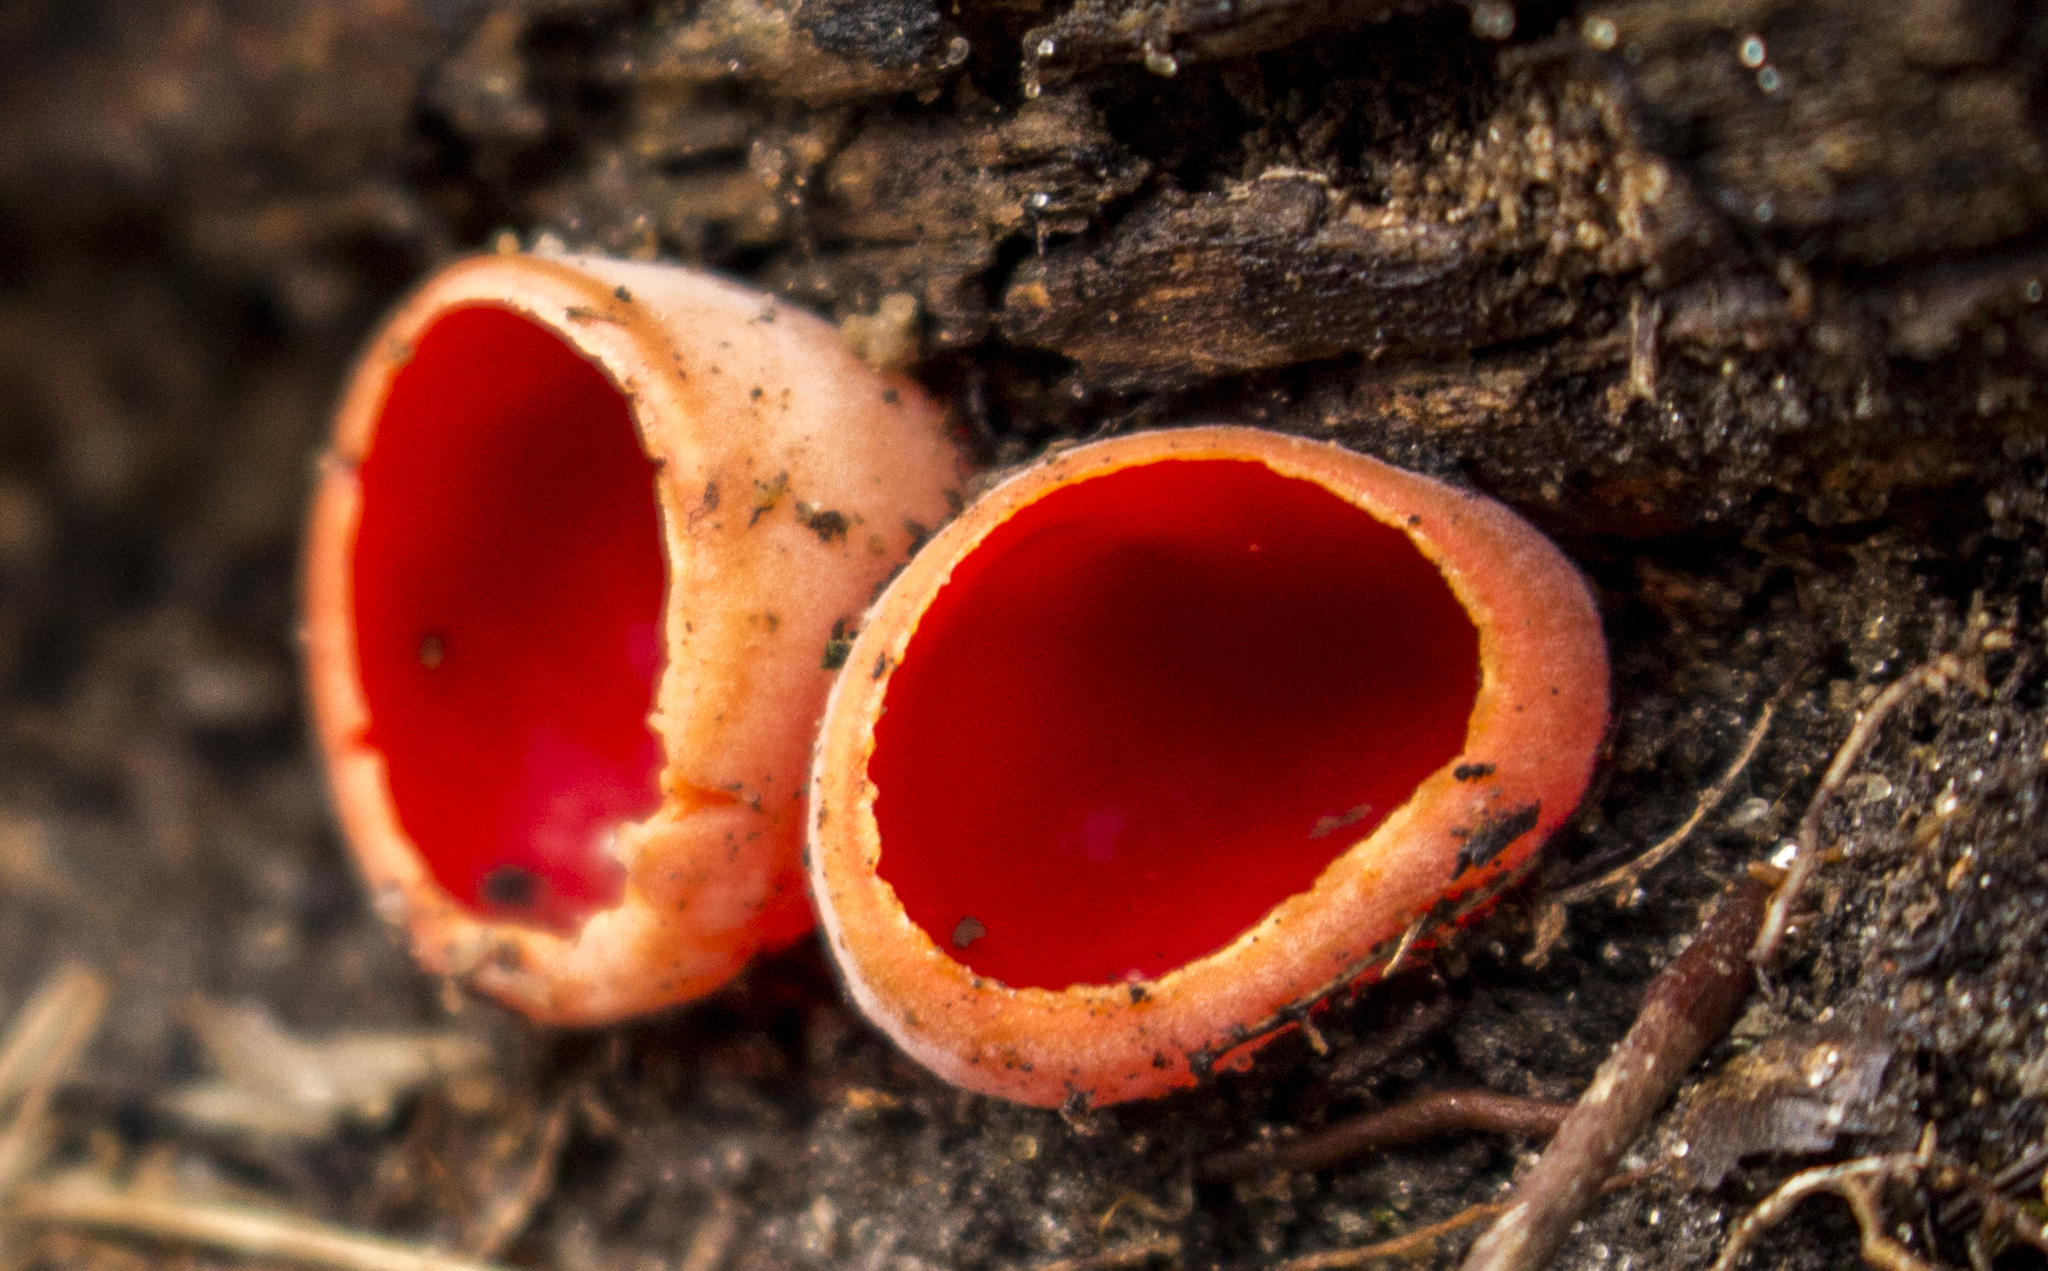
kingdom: Fungi
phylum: Ascomycota
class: Pezizomycetes
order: Pezizales
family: Sarcoscyphaceae
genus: Sarcoscypha
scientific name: Sarcoscypha
